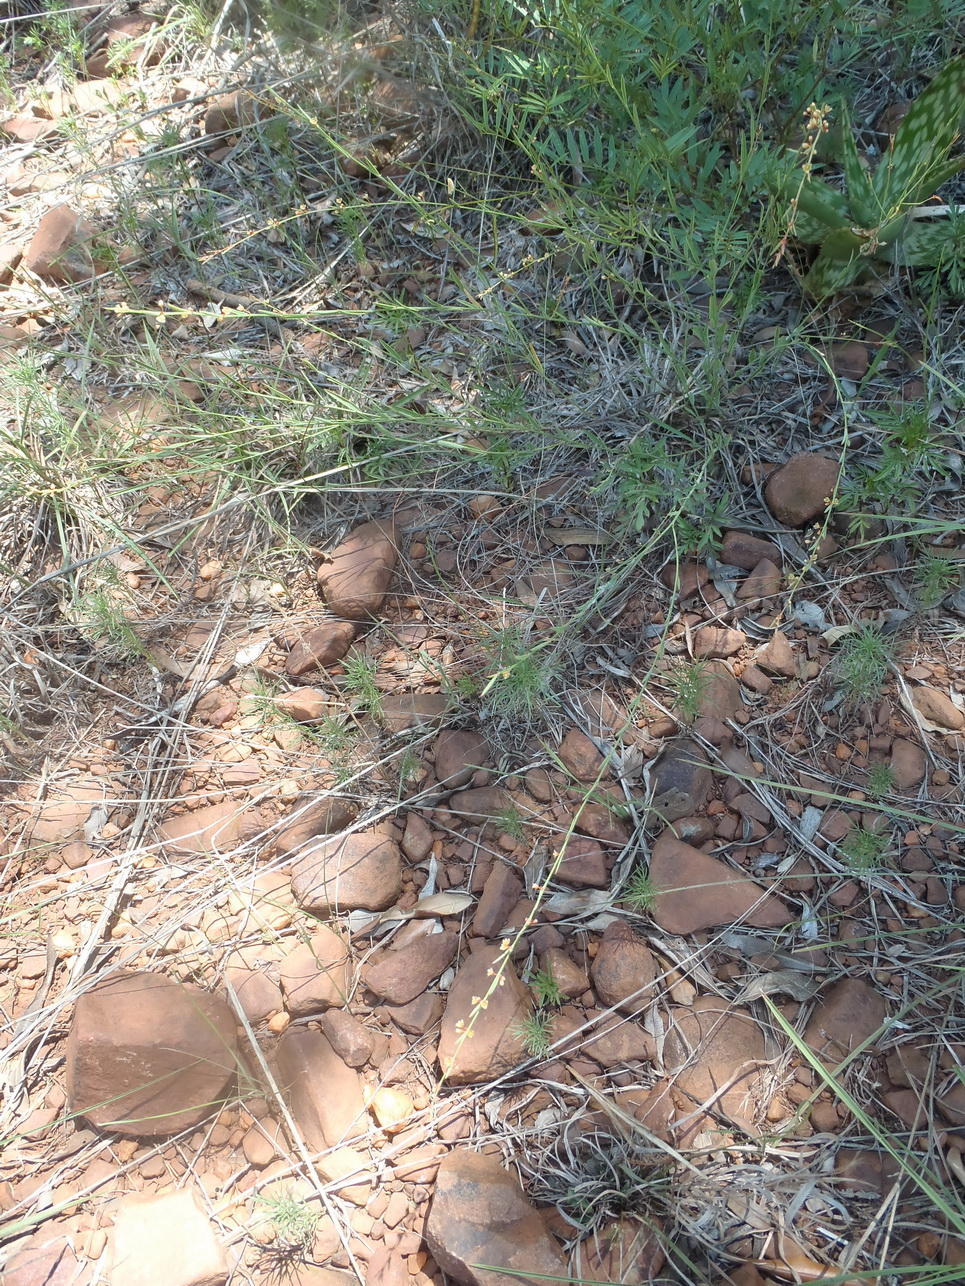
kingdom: Plantae
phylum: Tracheophyta
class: Magnoliopsida
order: Malpighiales
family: Phyllanthaceae
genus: Phyllanthus
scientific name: Phyllanthus incurvus
